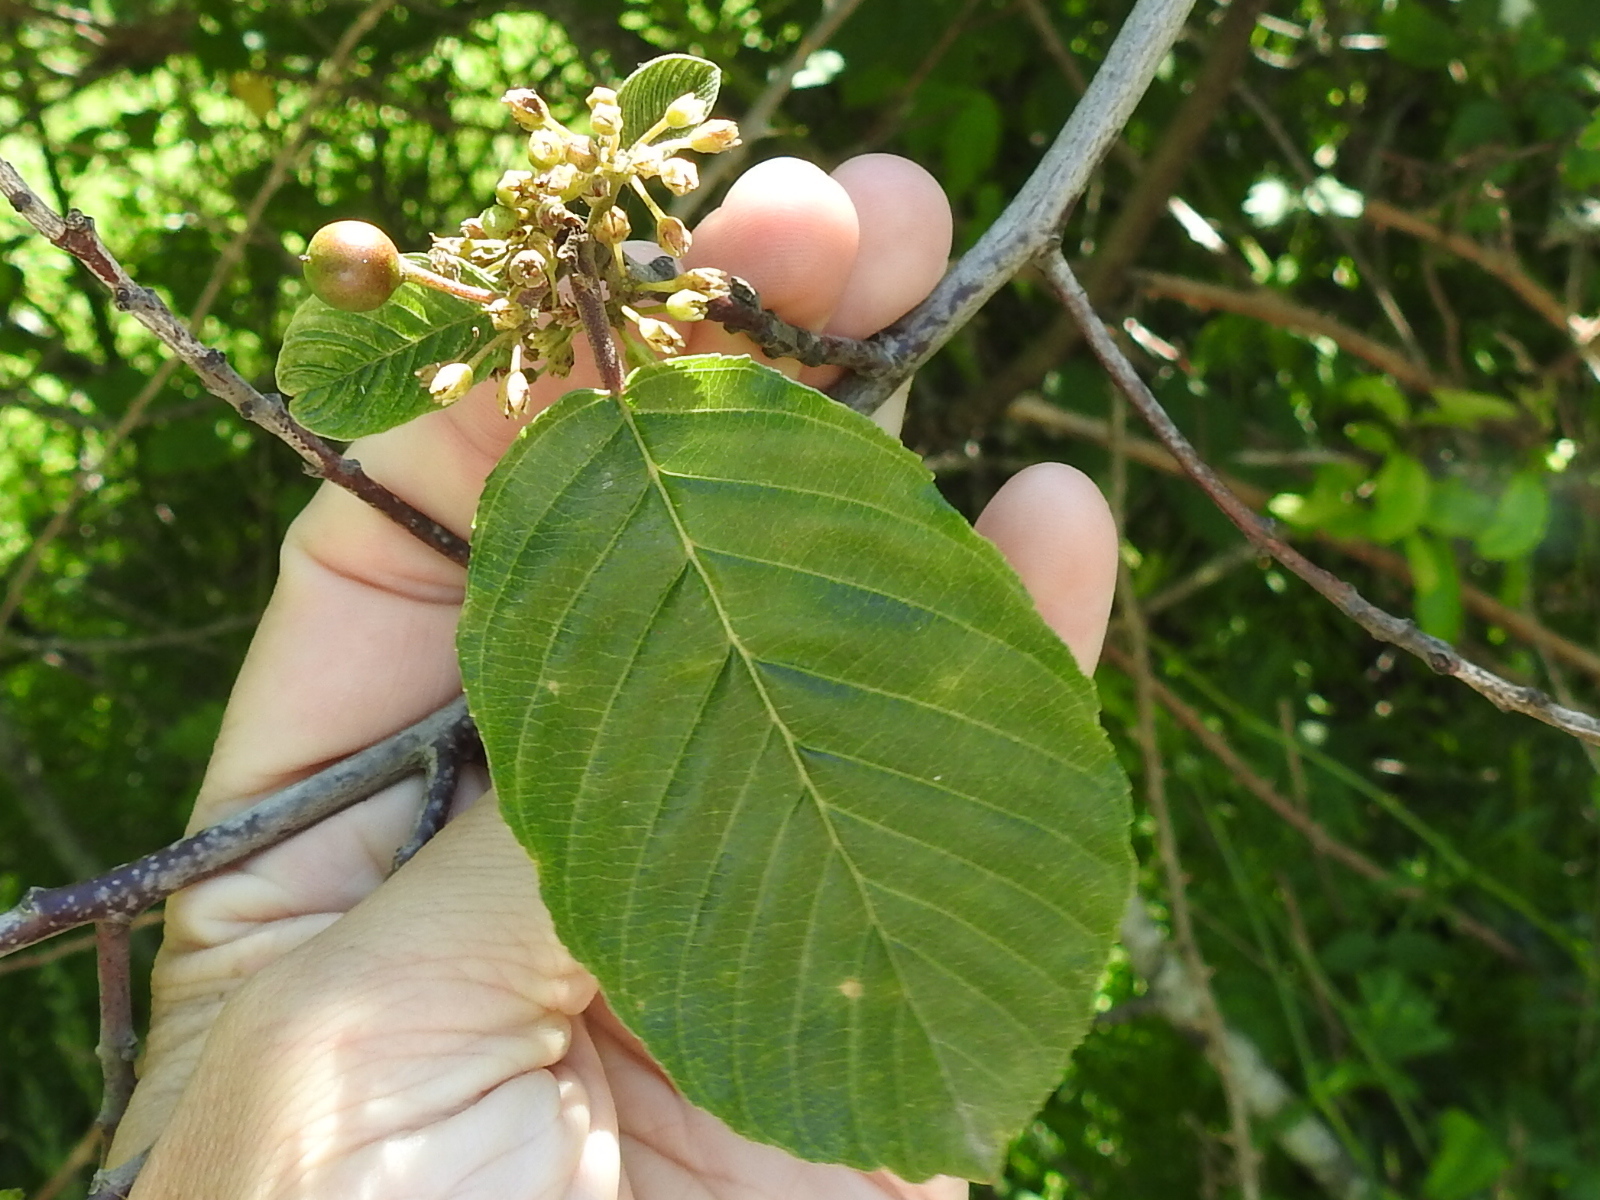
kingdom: Plantae
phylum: Tracheophyta
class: Magnoliopsida
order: Rosales
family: Rhamnaceae
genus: Frangula
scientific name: Frangula purshiana
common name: Cascara buckthorn
